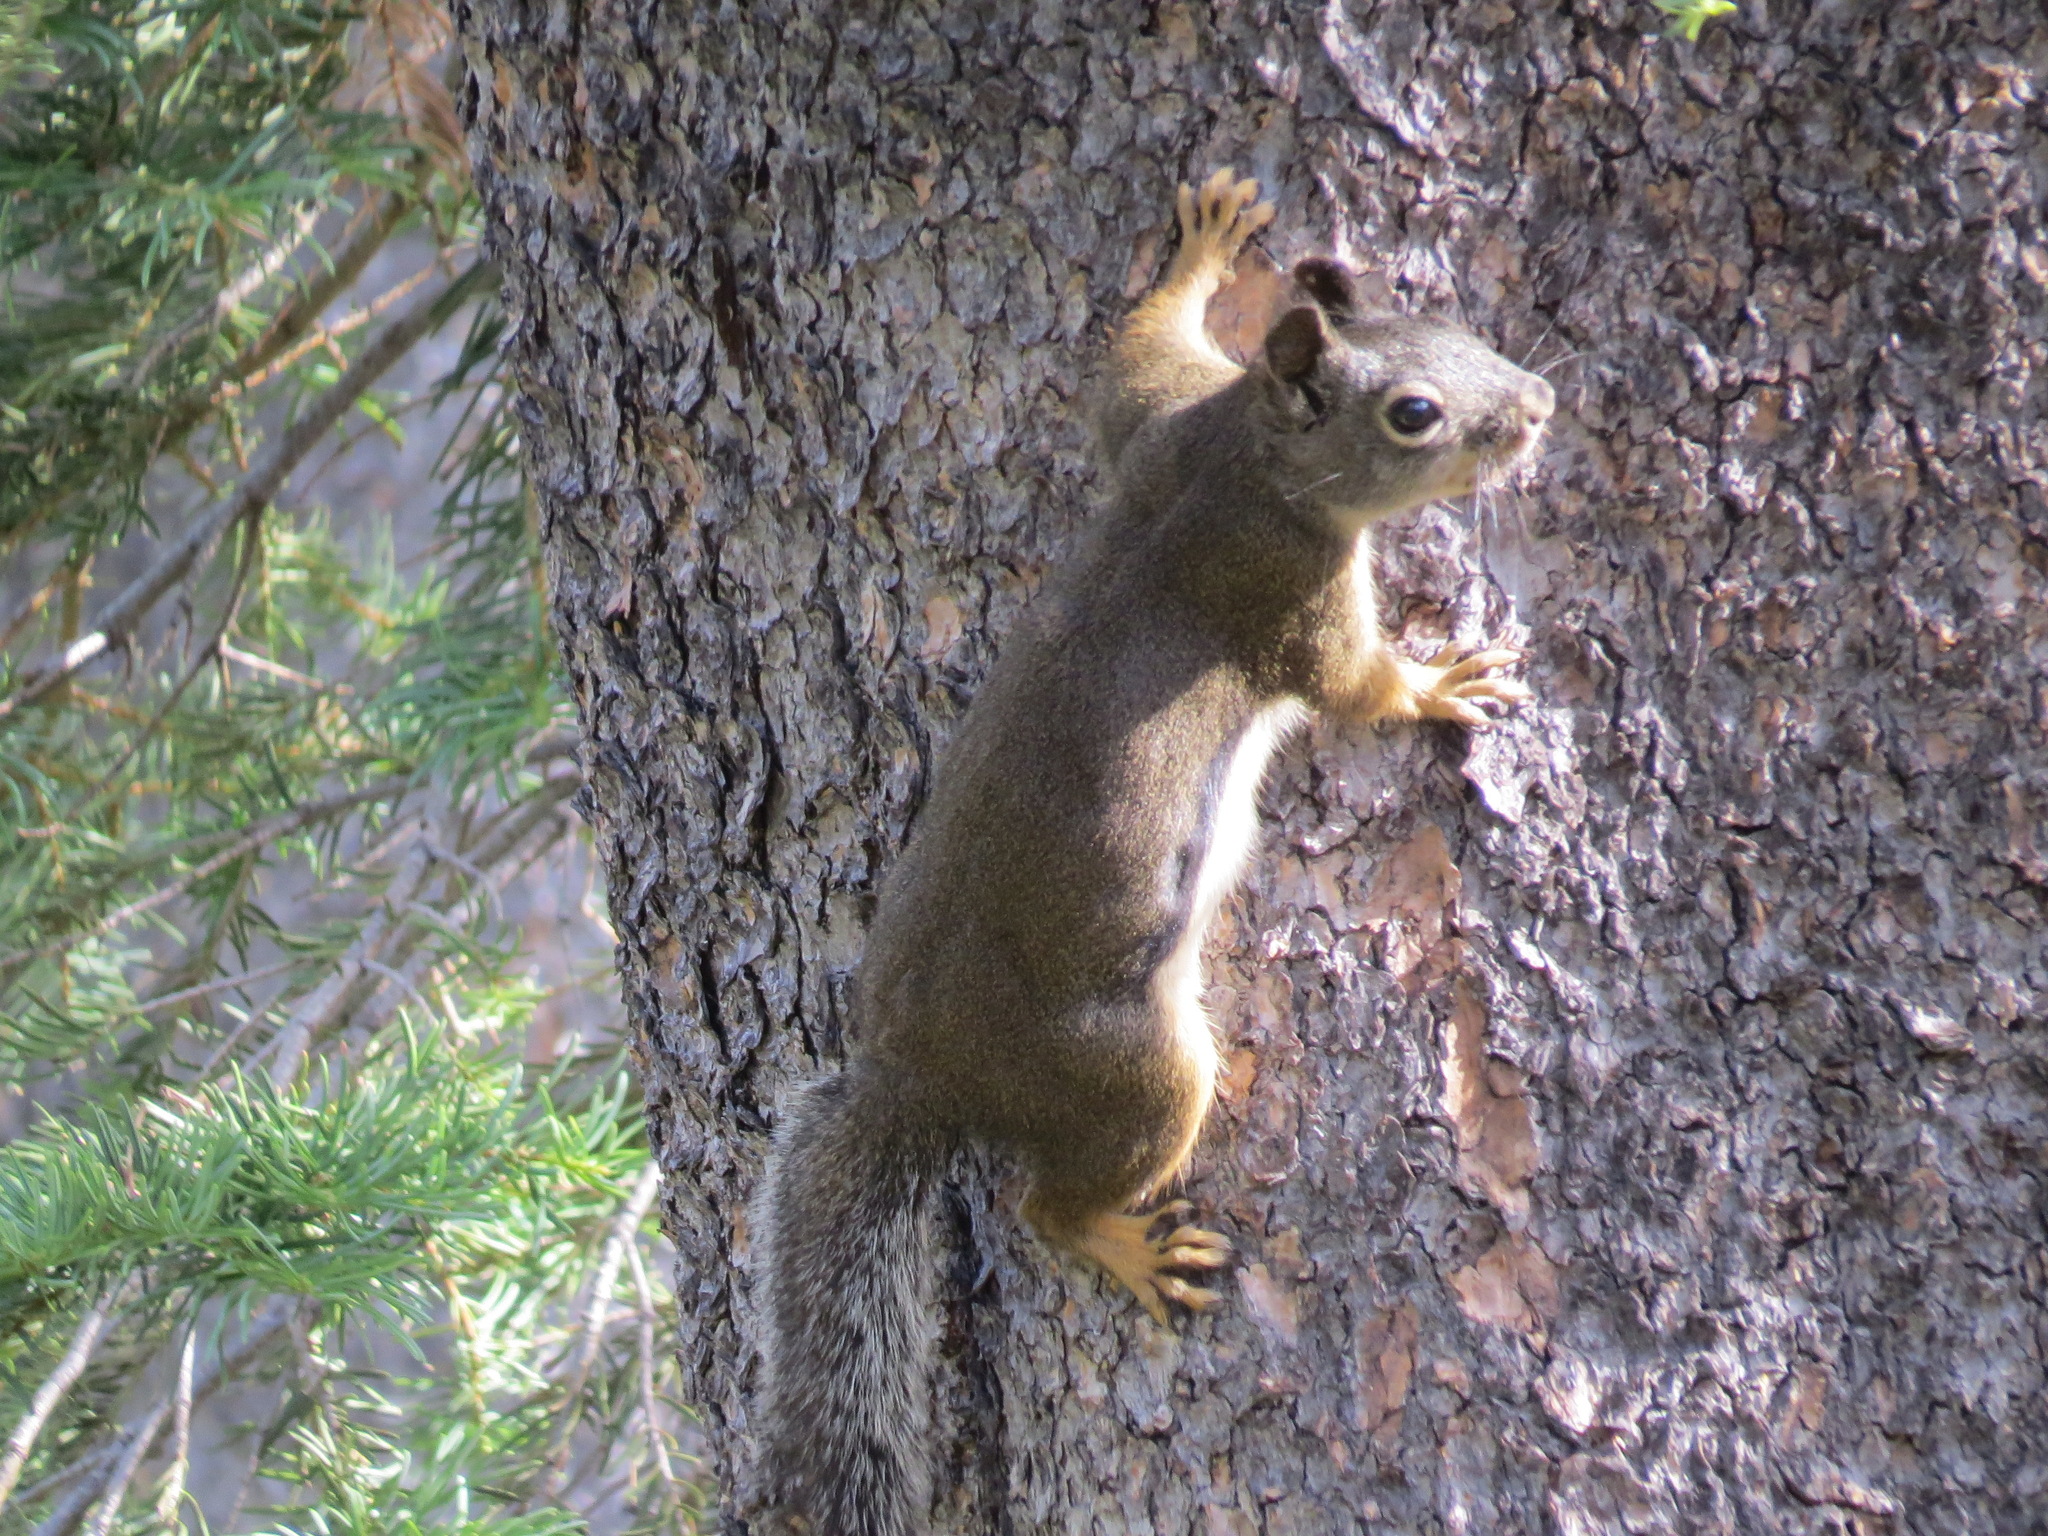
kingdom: Animalia
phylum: Chordata
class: Mammalia
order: Rodentia
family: Sciuridae
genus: Tamiasciurus
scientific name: Tamiasciurus douglasii
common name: Douglas's squirrel
